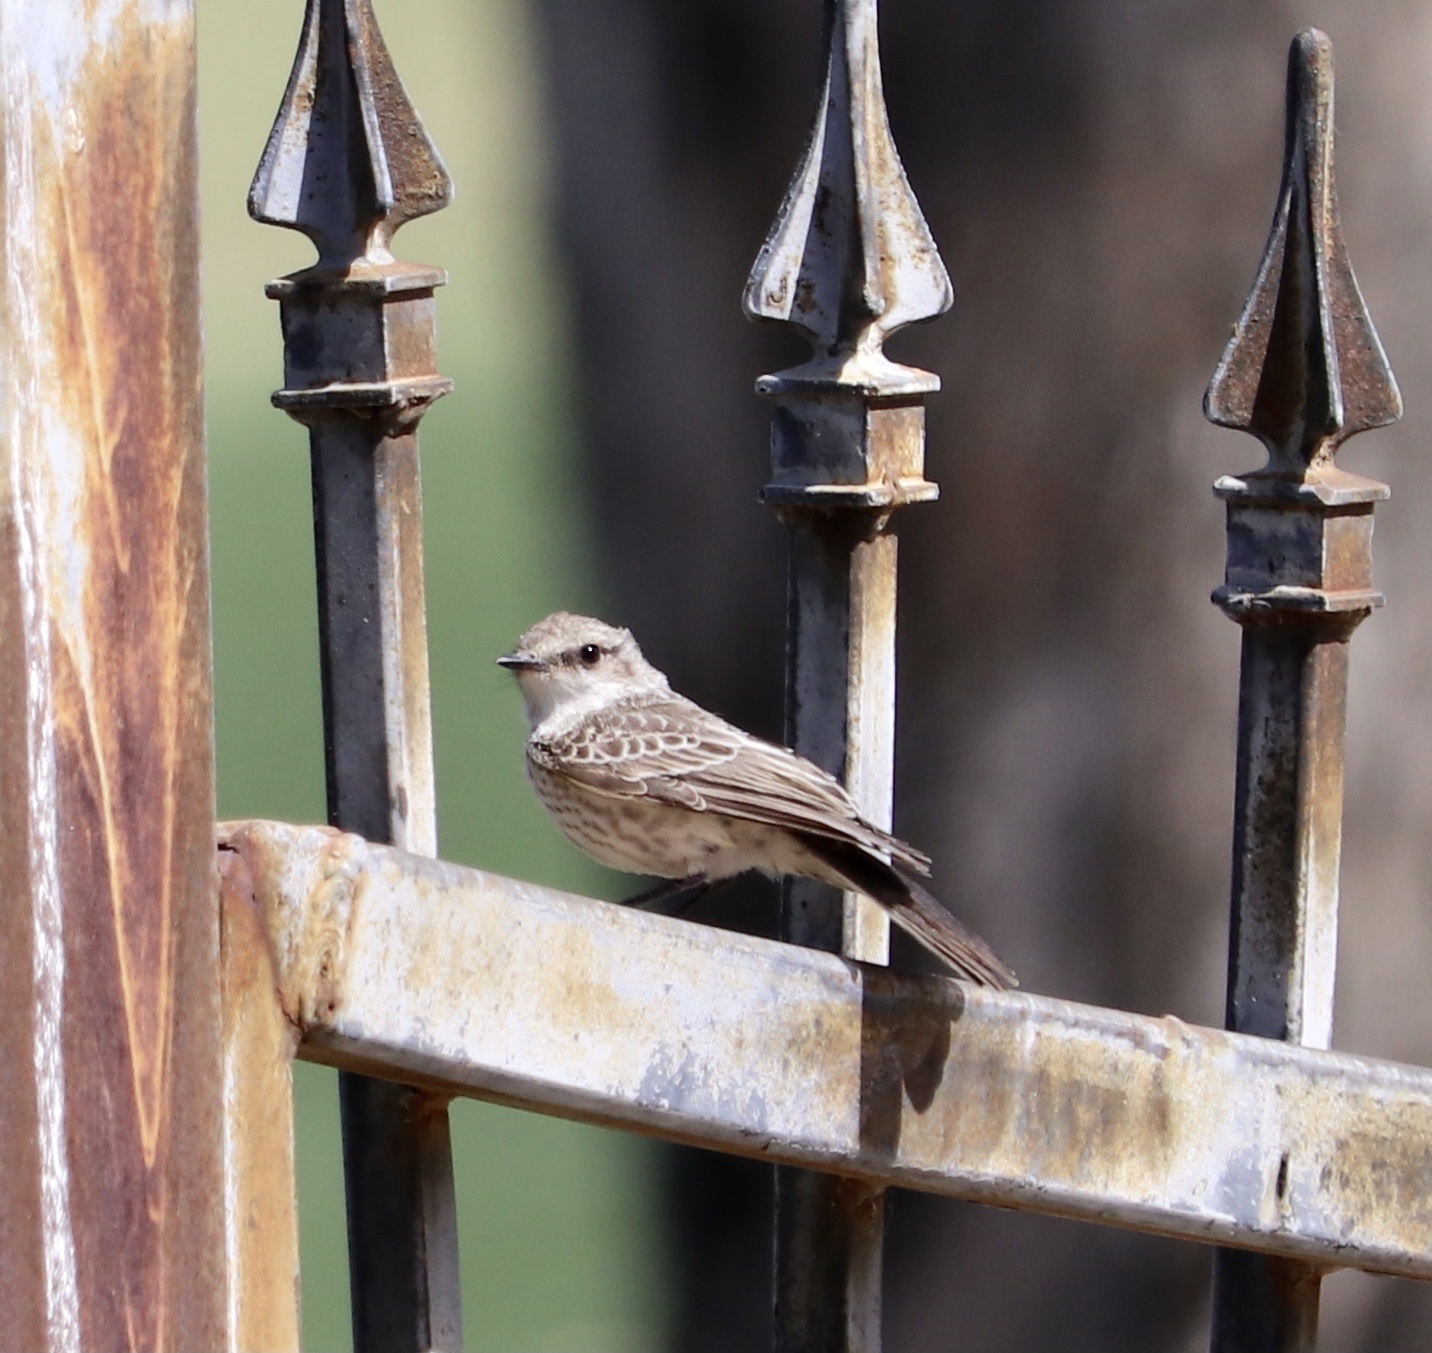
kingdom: Animalia
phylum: Chordata
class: Aves
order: Passeriformes
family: Tyrannidae
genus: Pyrocephalus
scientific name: Pyrocephalus rubinus
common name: Vermilion flycatcher
